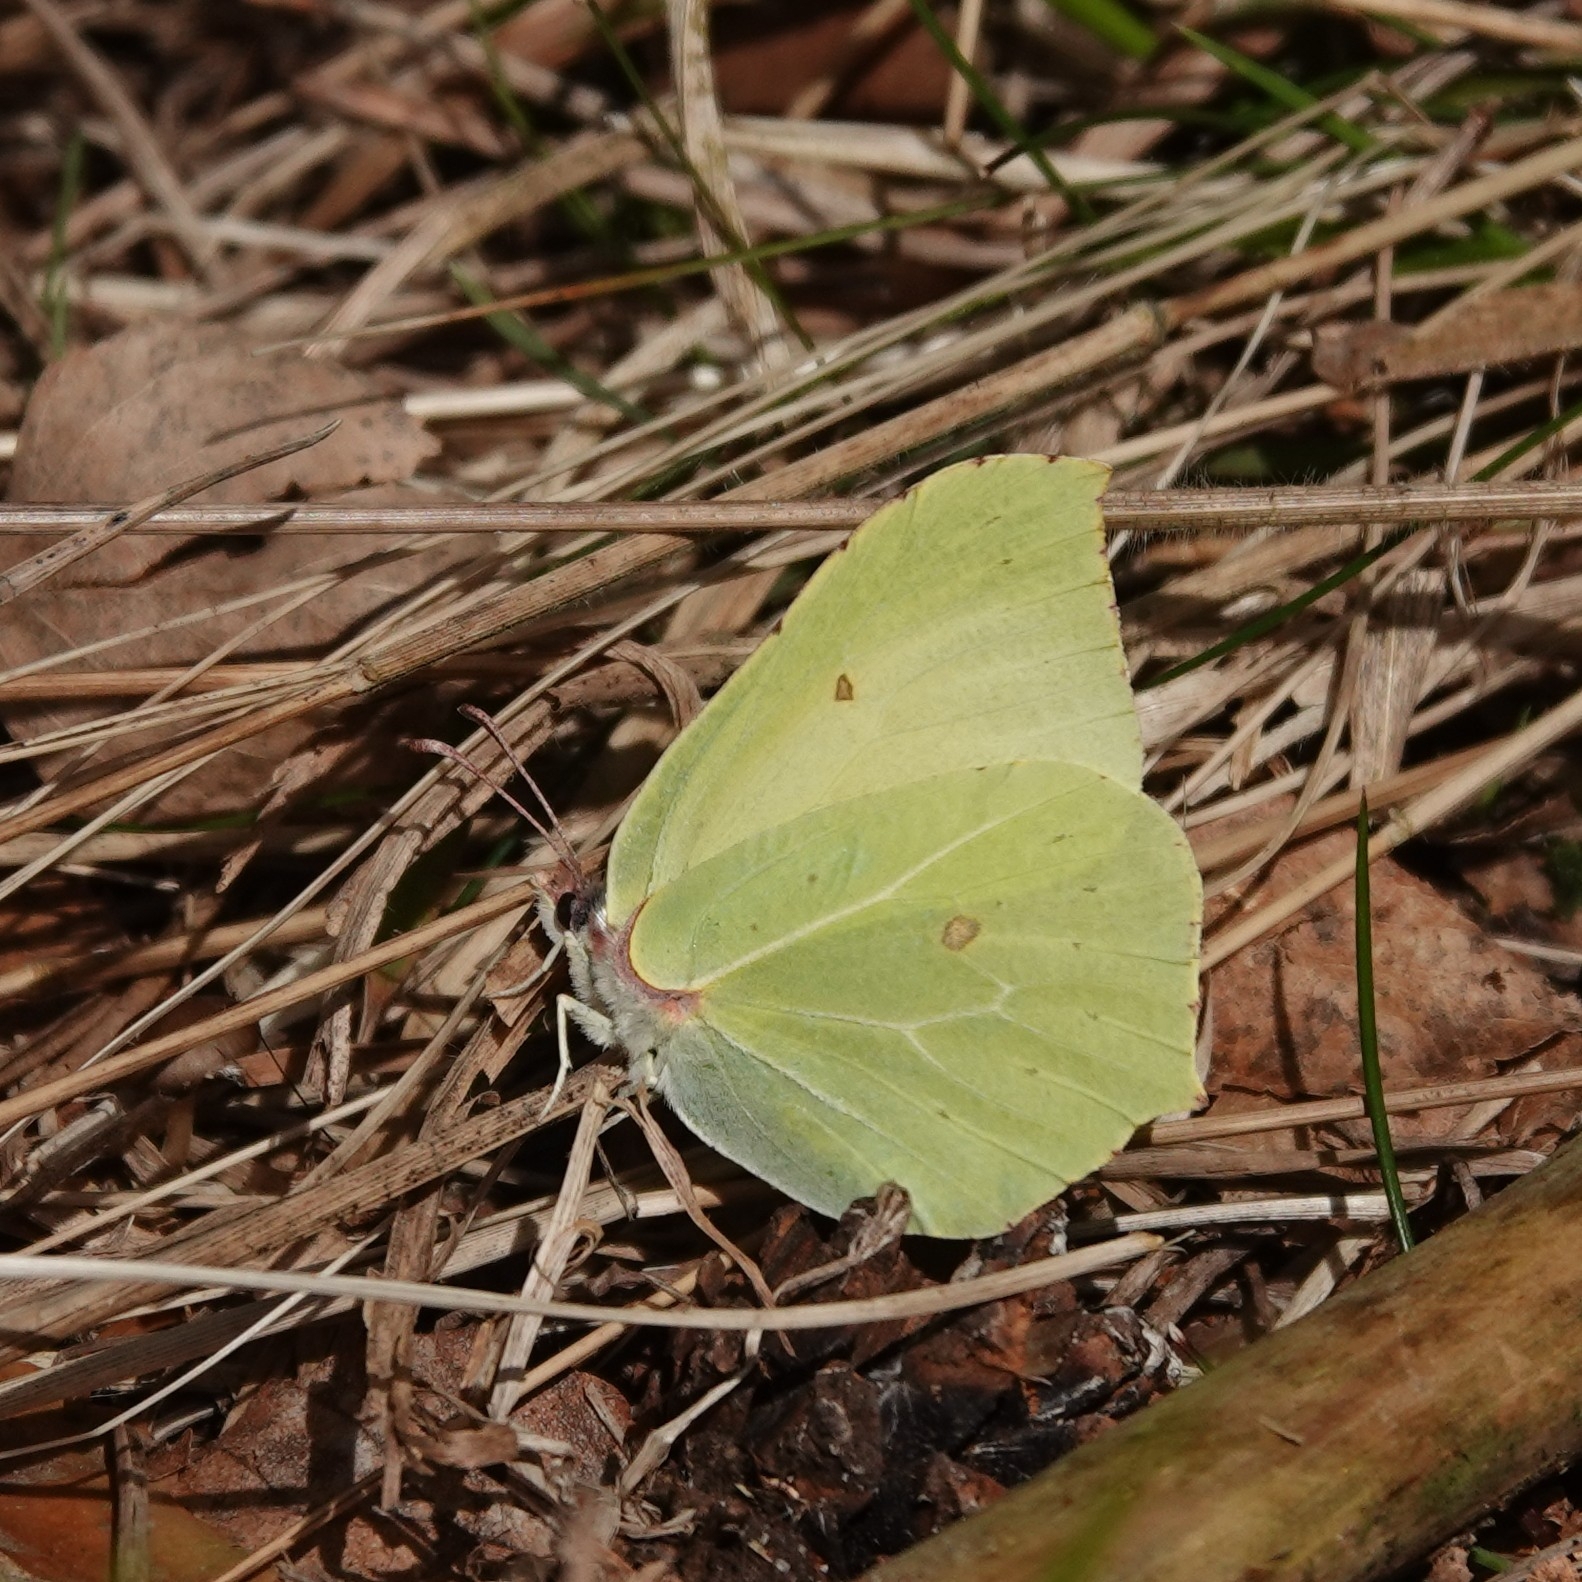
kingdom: Animalia
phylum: Arthropoda
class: Insecta
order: Lepidoptera
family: Pieridae
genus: Gonepteryx
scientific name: Gonepteryx rhamni
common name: Brimstone
